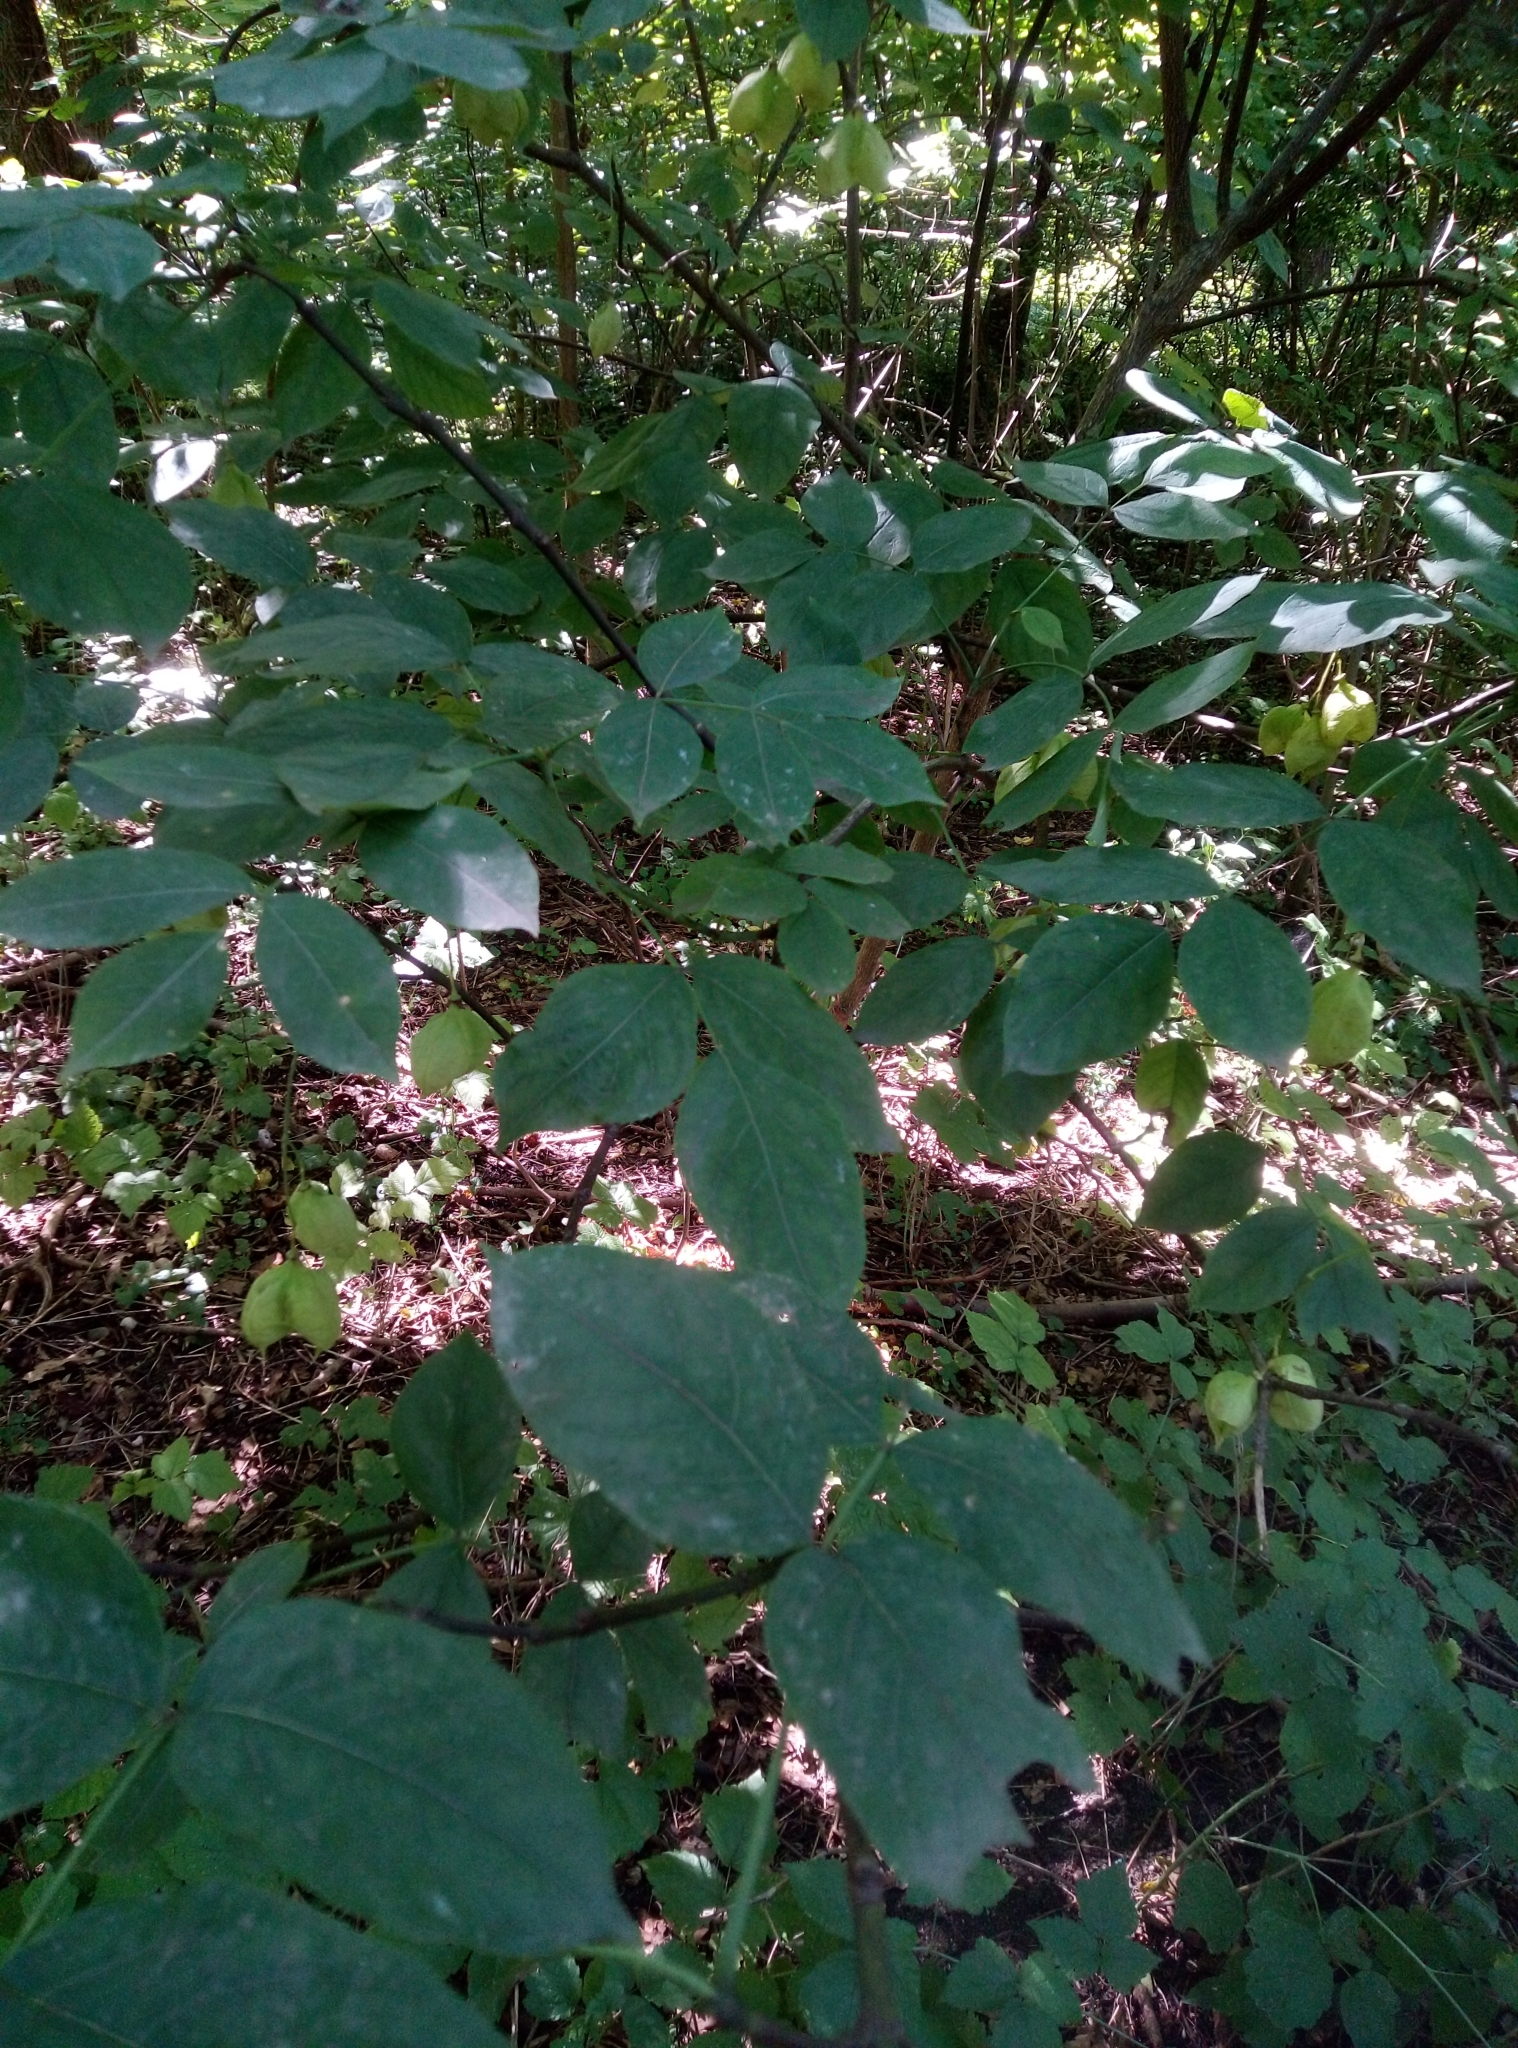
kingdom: Plantae
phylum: Tracheophyta
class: Magnoliopsida
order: Crossosomatales
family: Staphyleaceae
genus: Staphylea
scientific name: Staphylea pinnata
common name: Bladdernut
